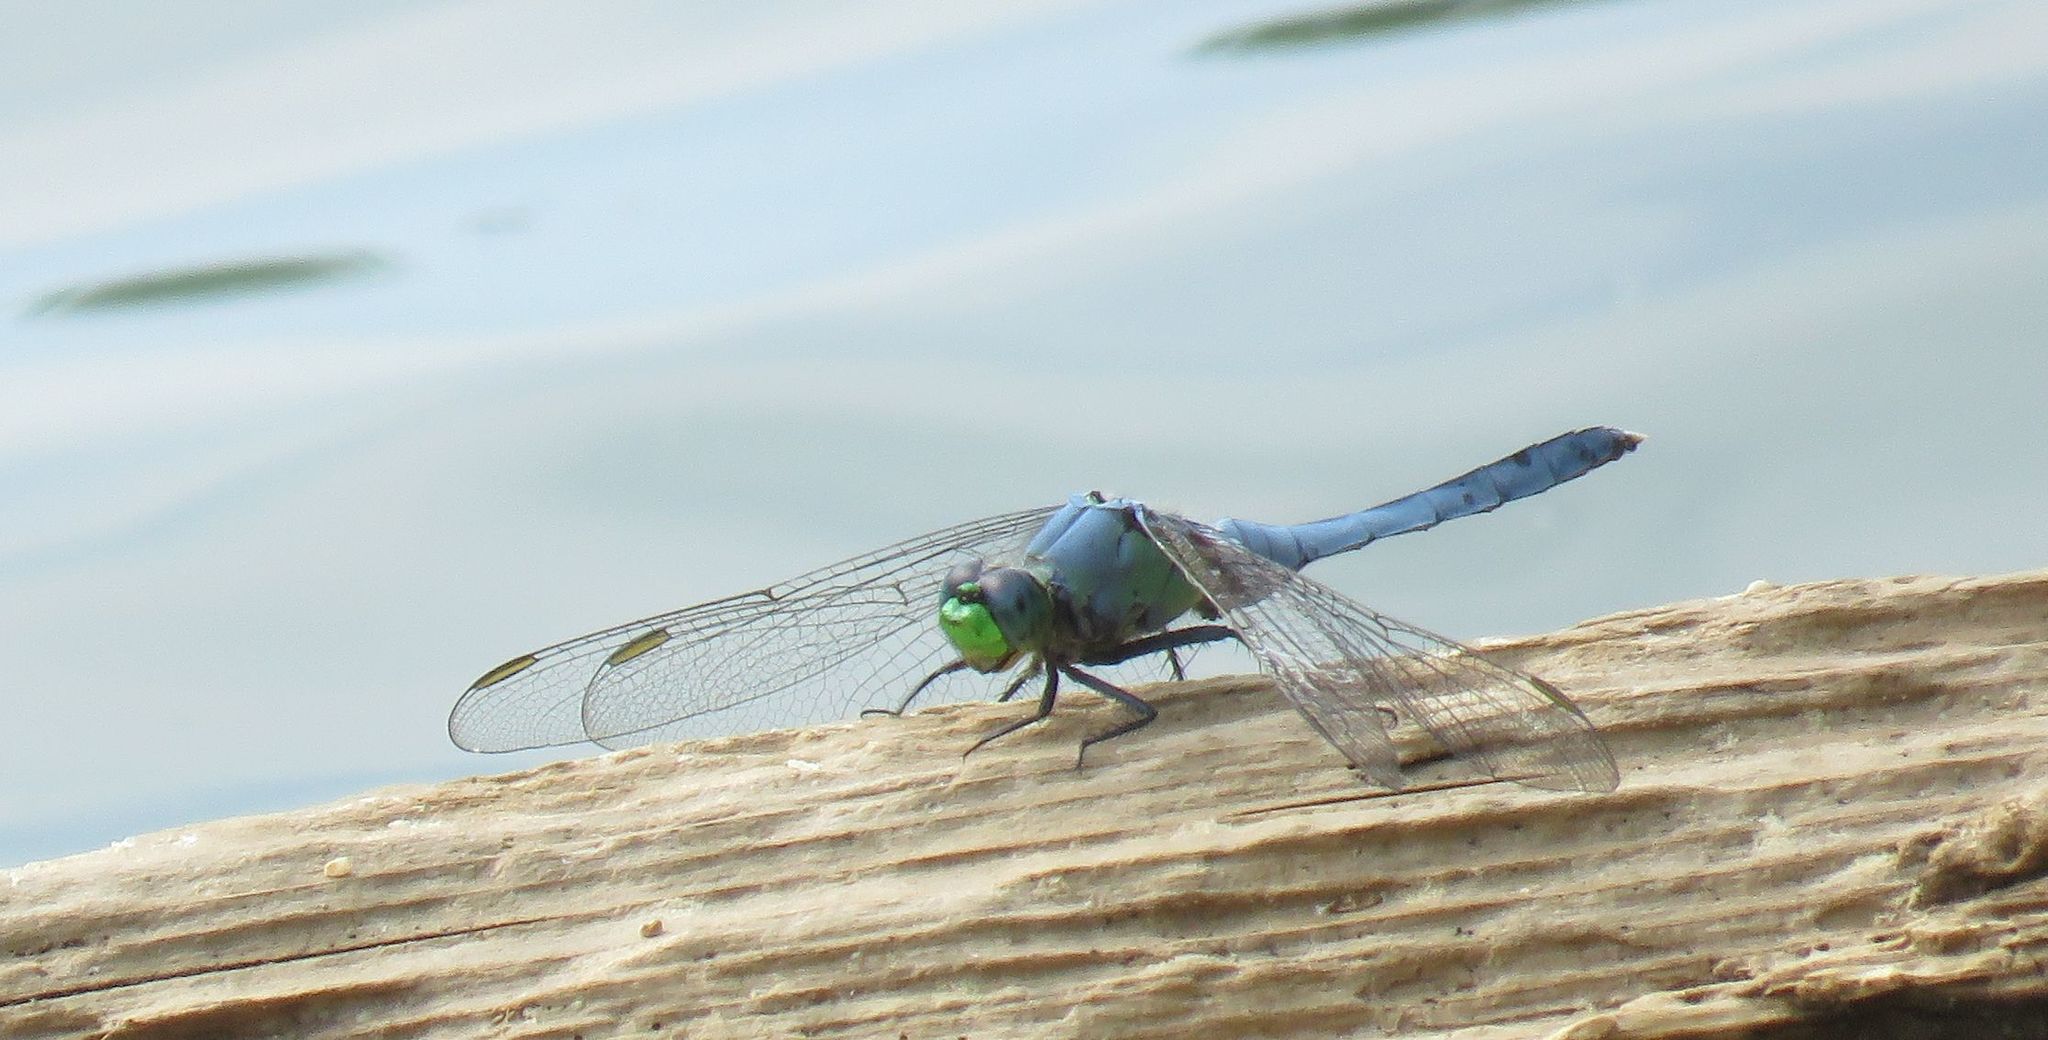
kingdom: Animalia
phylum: Arthropoda
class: Insecta
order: Odonata
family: Libellulidae
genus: Erythemis
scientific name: Erythemis simplicicollis
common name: Eastern pondhawk
